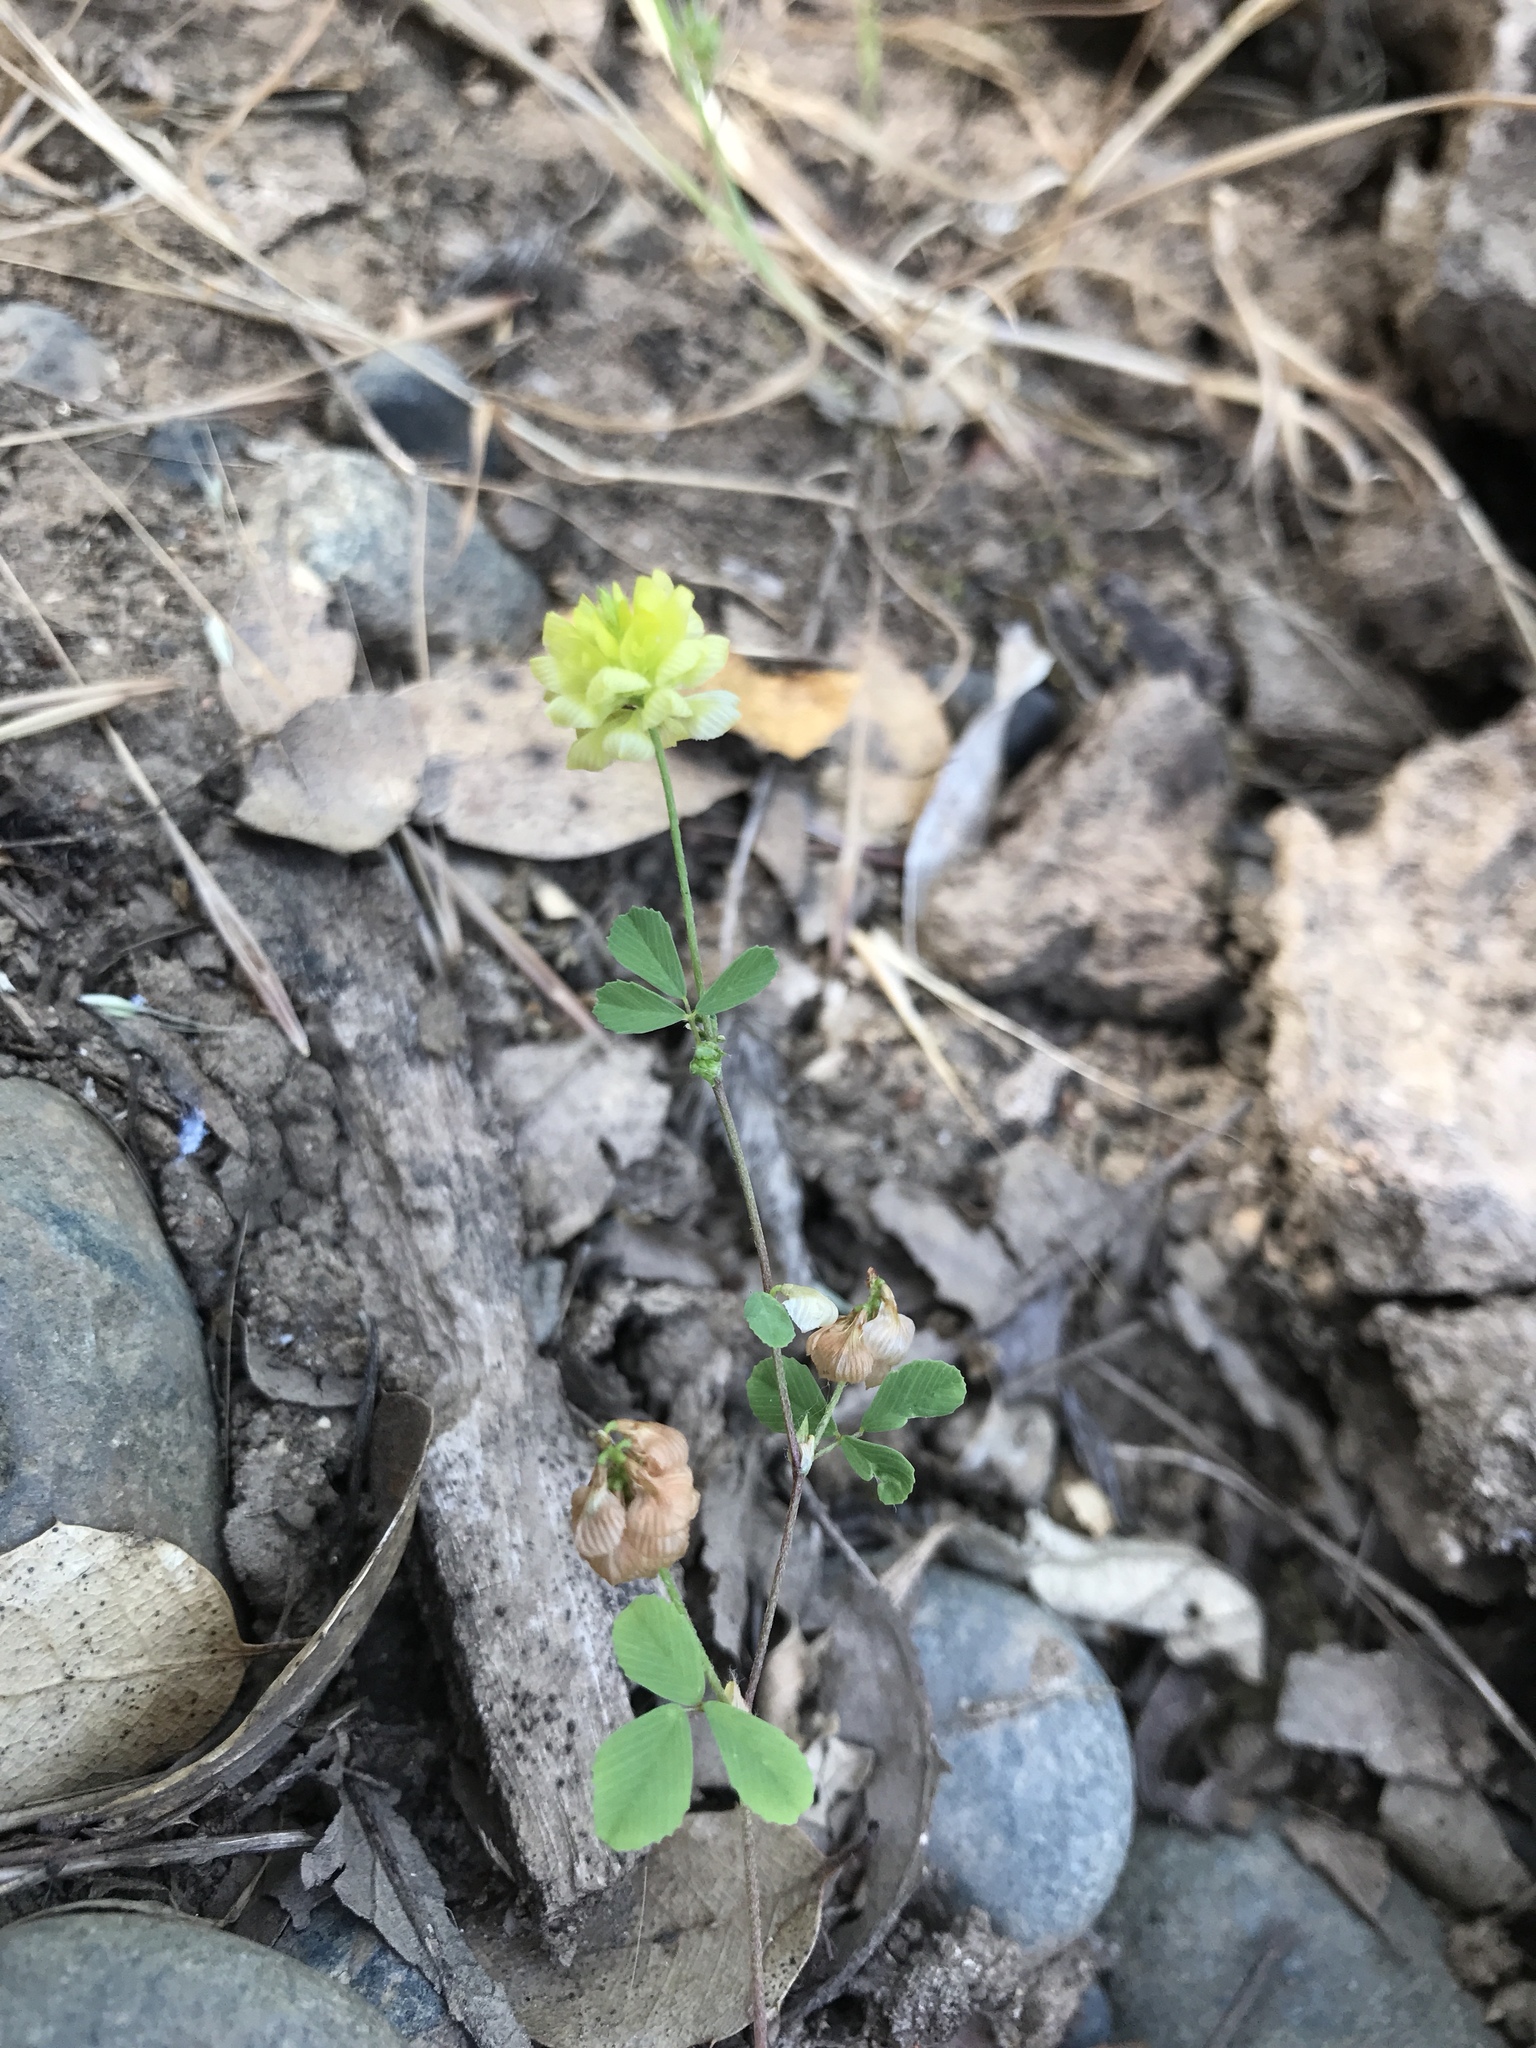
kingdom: Plantae
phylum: Tracheophyta
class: Magnoliopsida
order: Fabales
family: Fabaceae
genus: Trifolium
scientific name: Trifolium campestre
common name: Field clover
